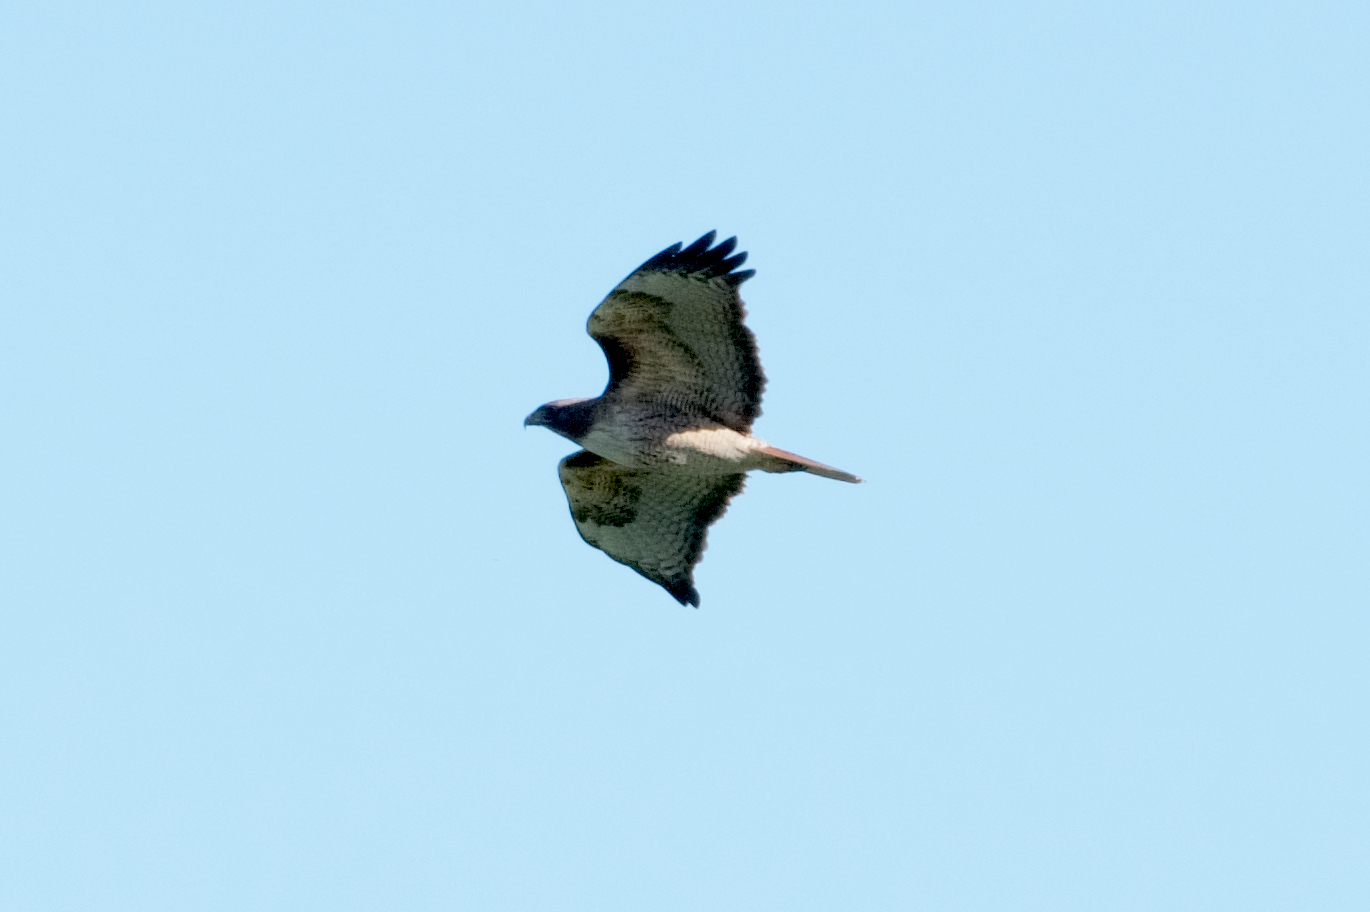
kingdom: Animalia
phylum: Chordata
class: Aves
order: Accipitriformes
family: Accipitridae
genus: Buteo
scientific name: Buteo jamaicensis
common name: Red-tailed hawk
